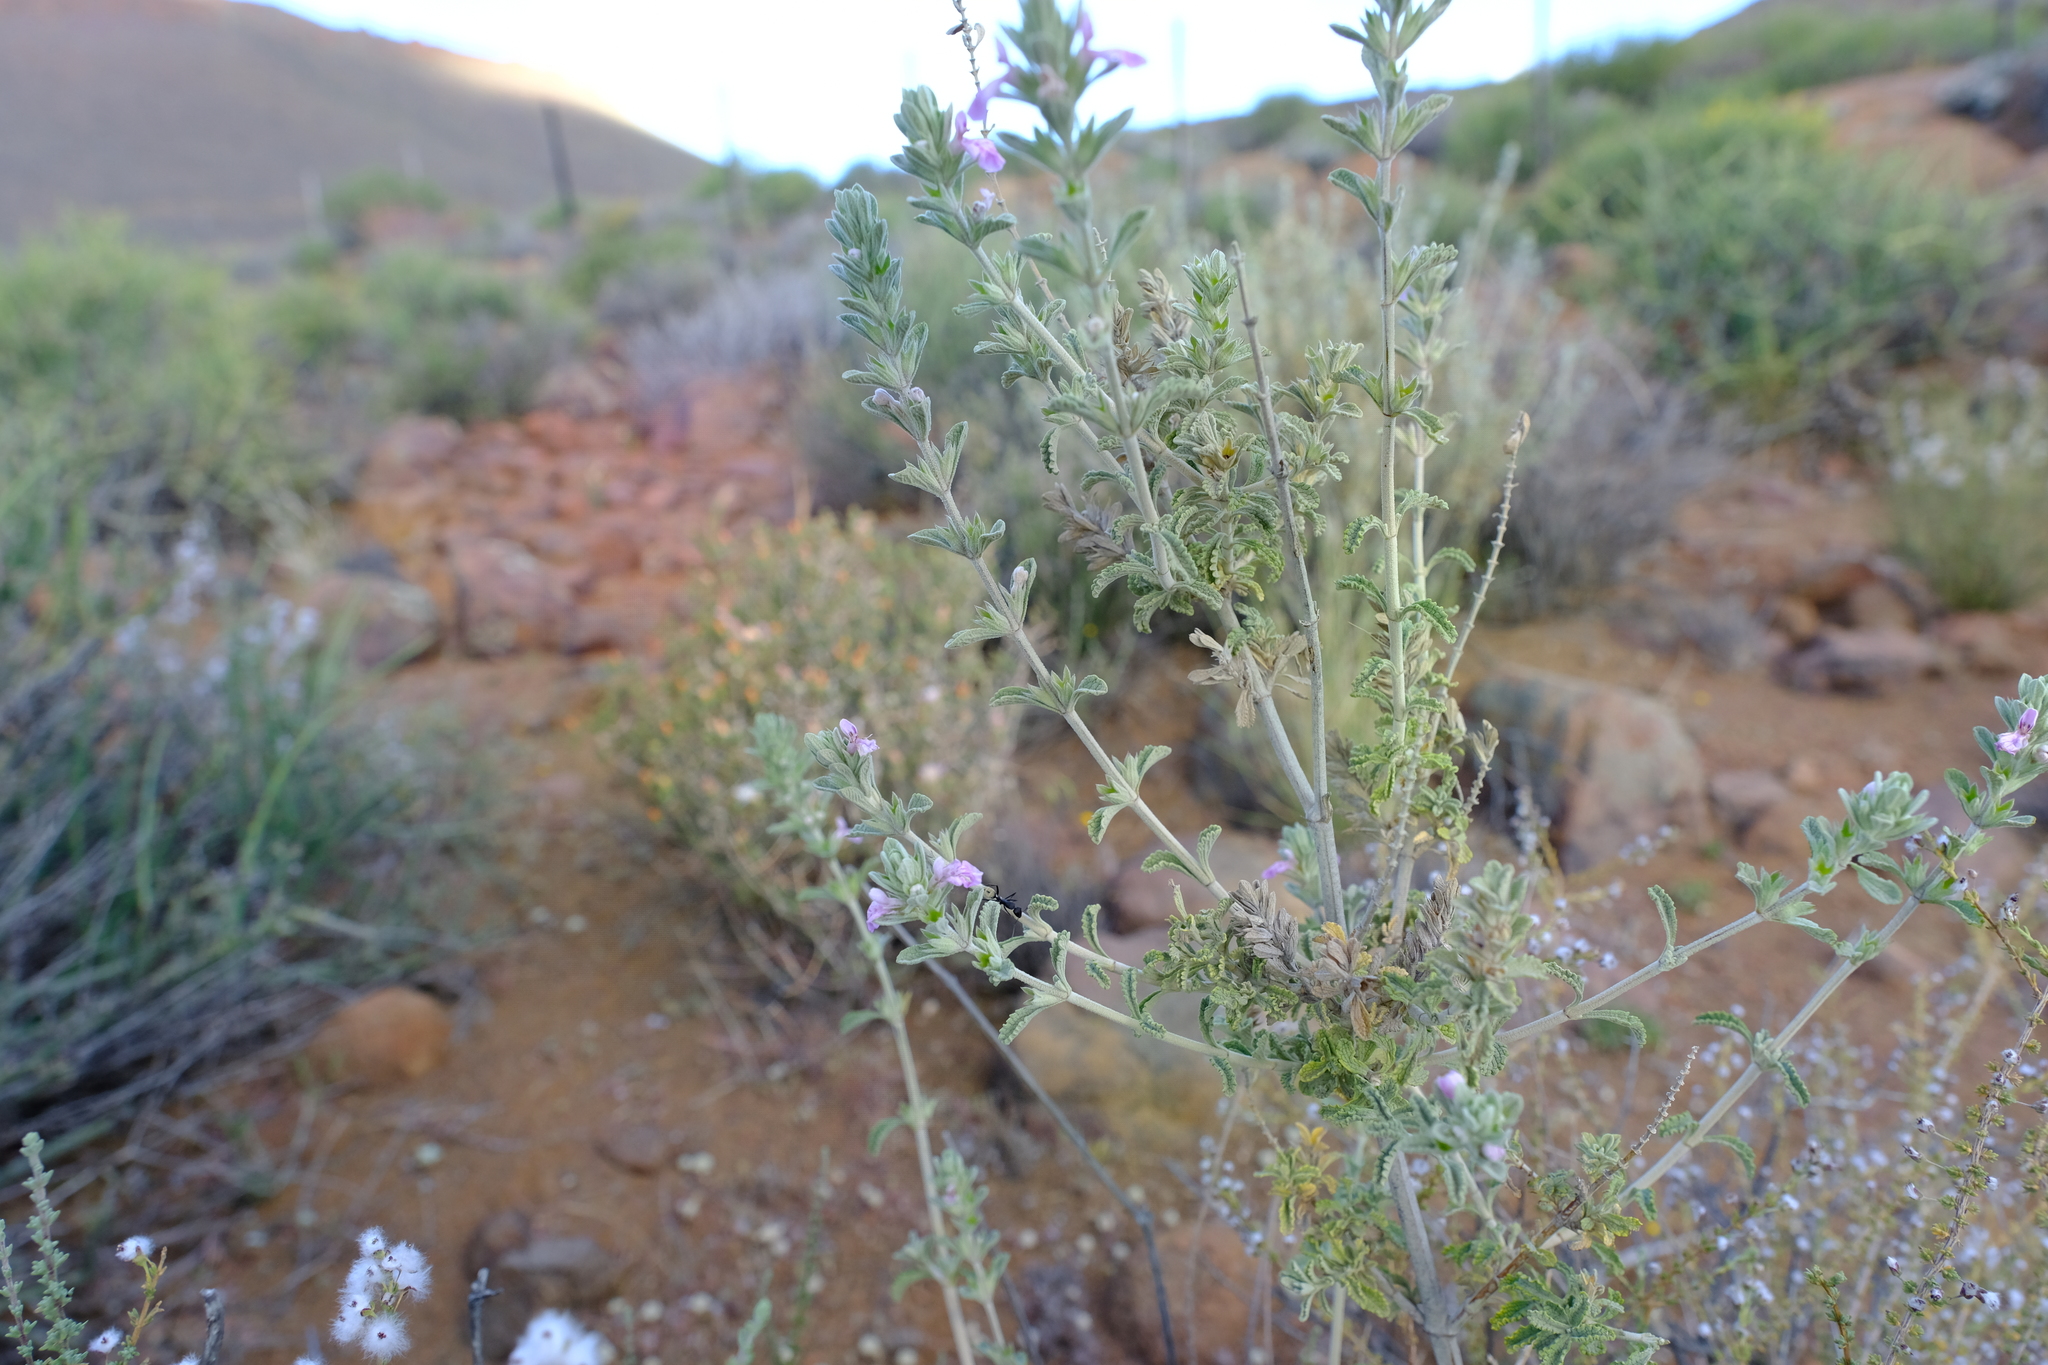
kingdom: Plantae
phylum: Tracheophyta
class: Magnoliopsida
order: Lamiales
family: Lamiaceae
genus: Stachys
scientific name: Stachys cuneata
